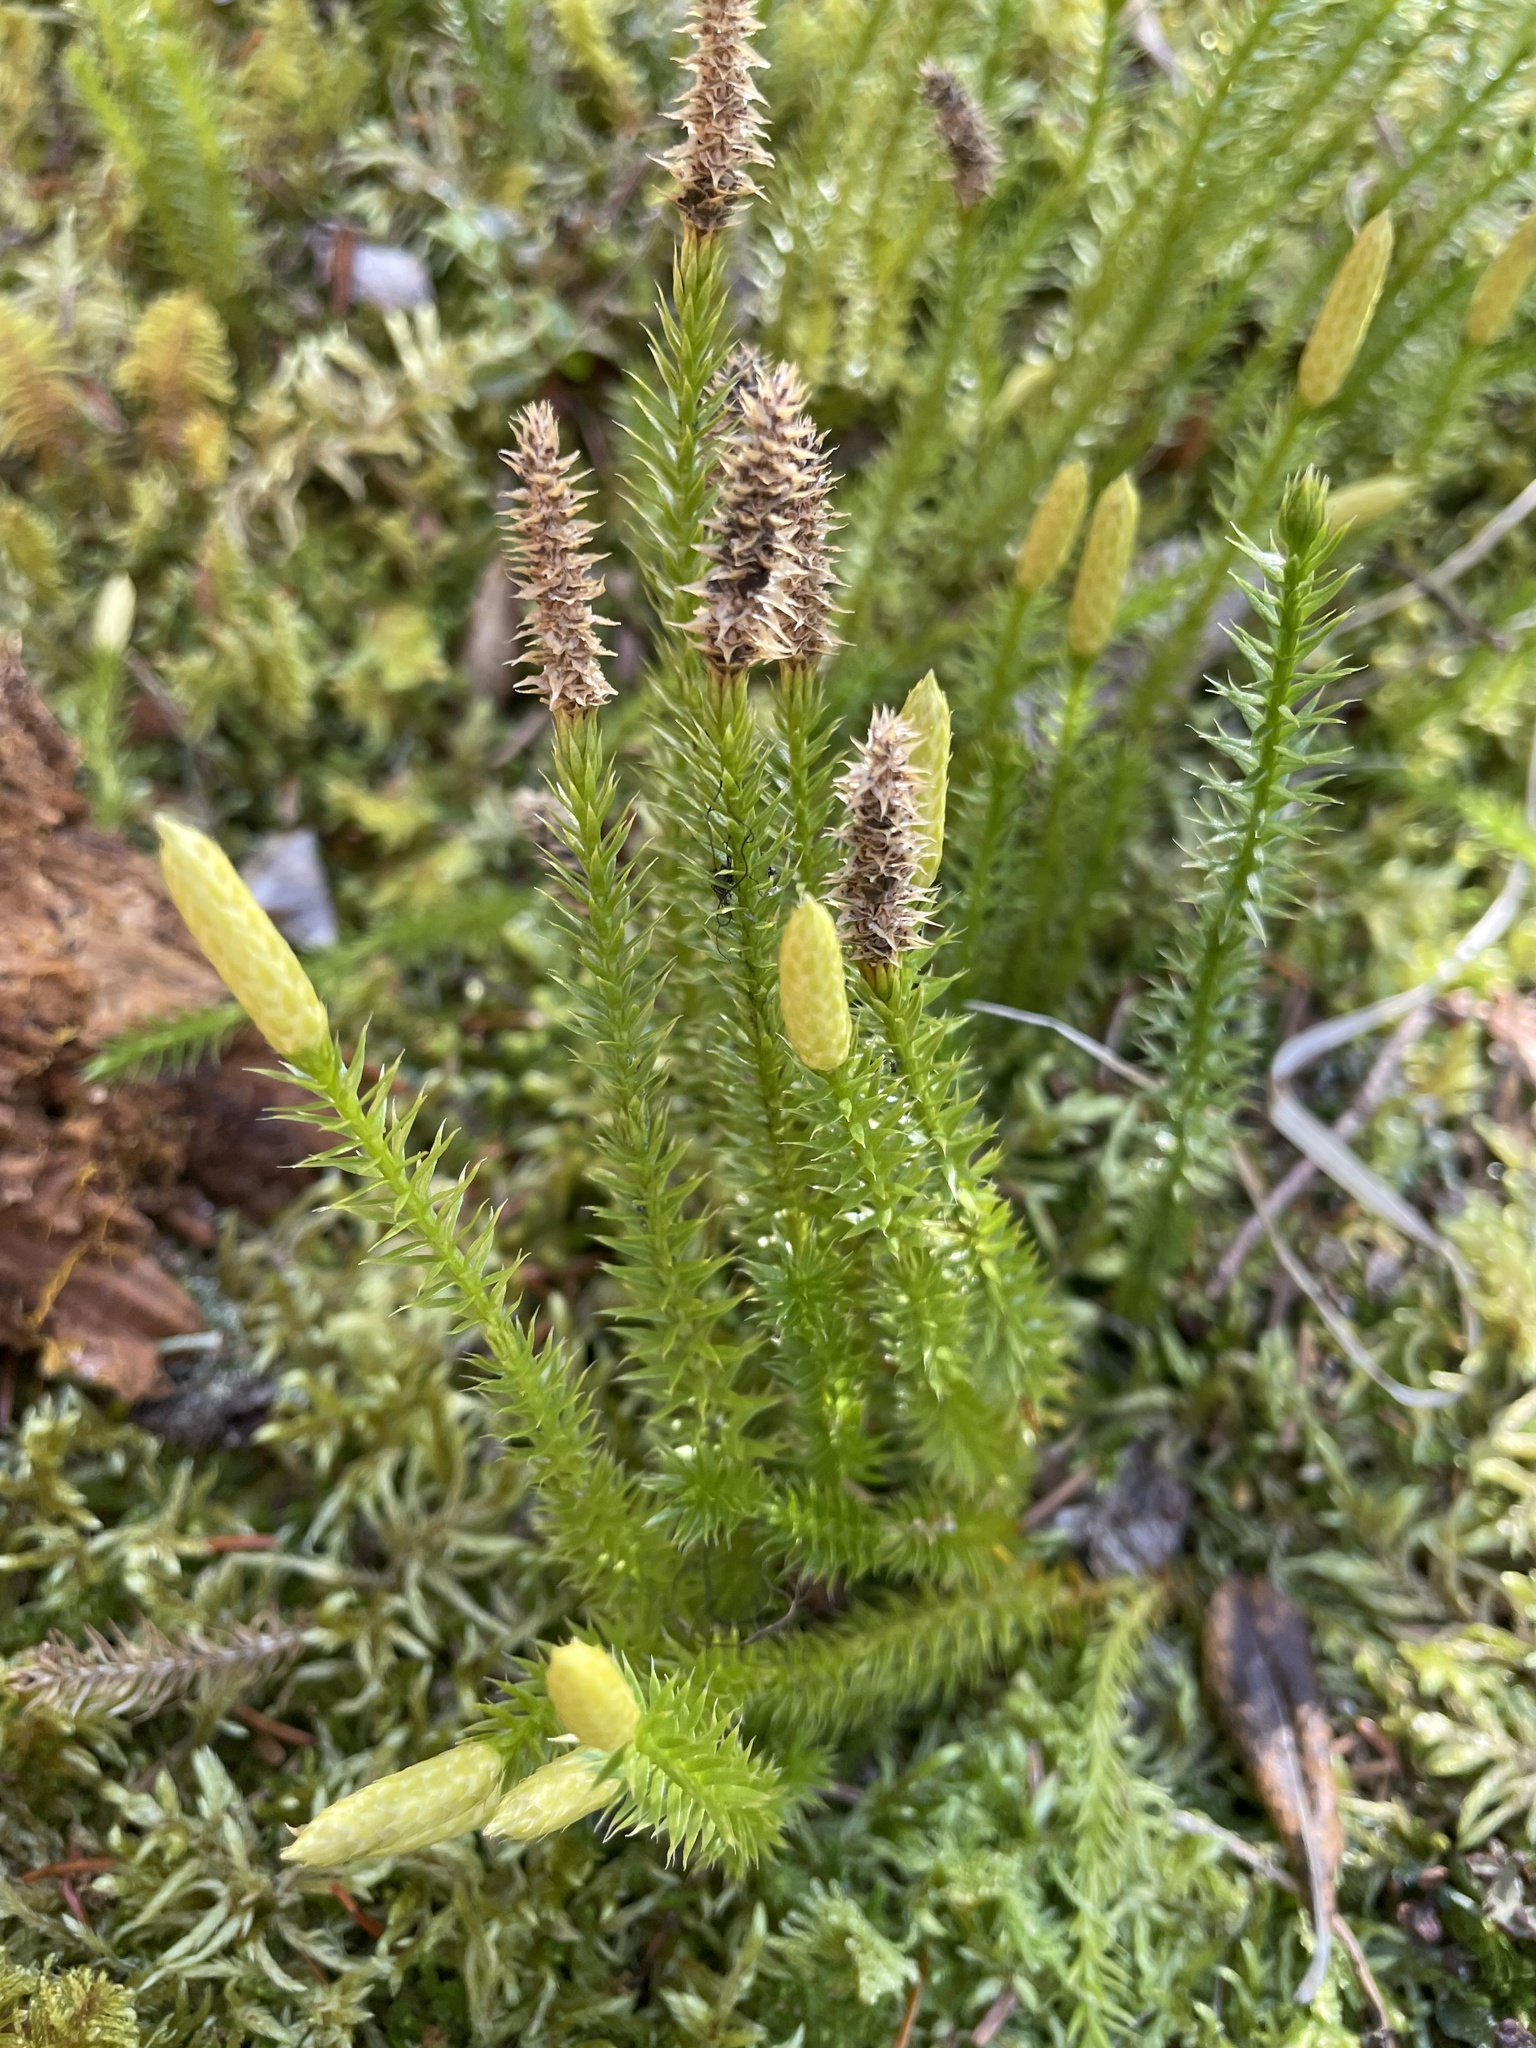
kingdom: Plantae
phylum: Tracheophyta
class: Lycopodiopsida
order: Lycopodiales
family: Lycopodiaceae
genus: Spinulum
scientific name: Spinulum annotinum
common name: Interrupted club-moss
